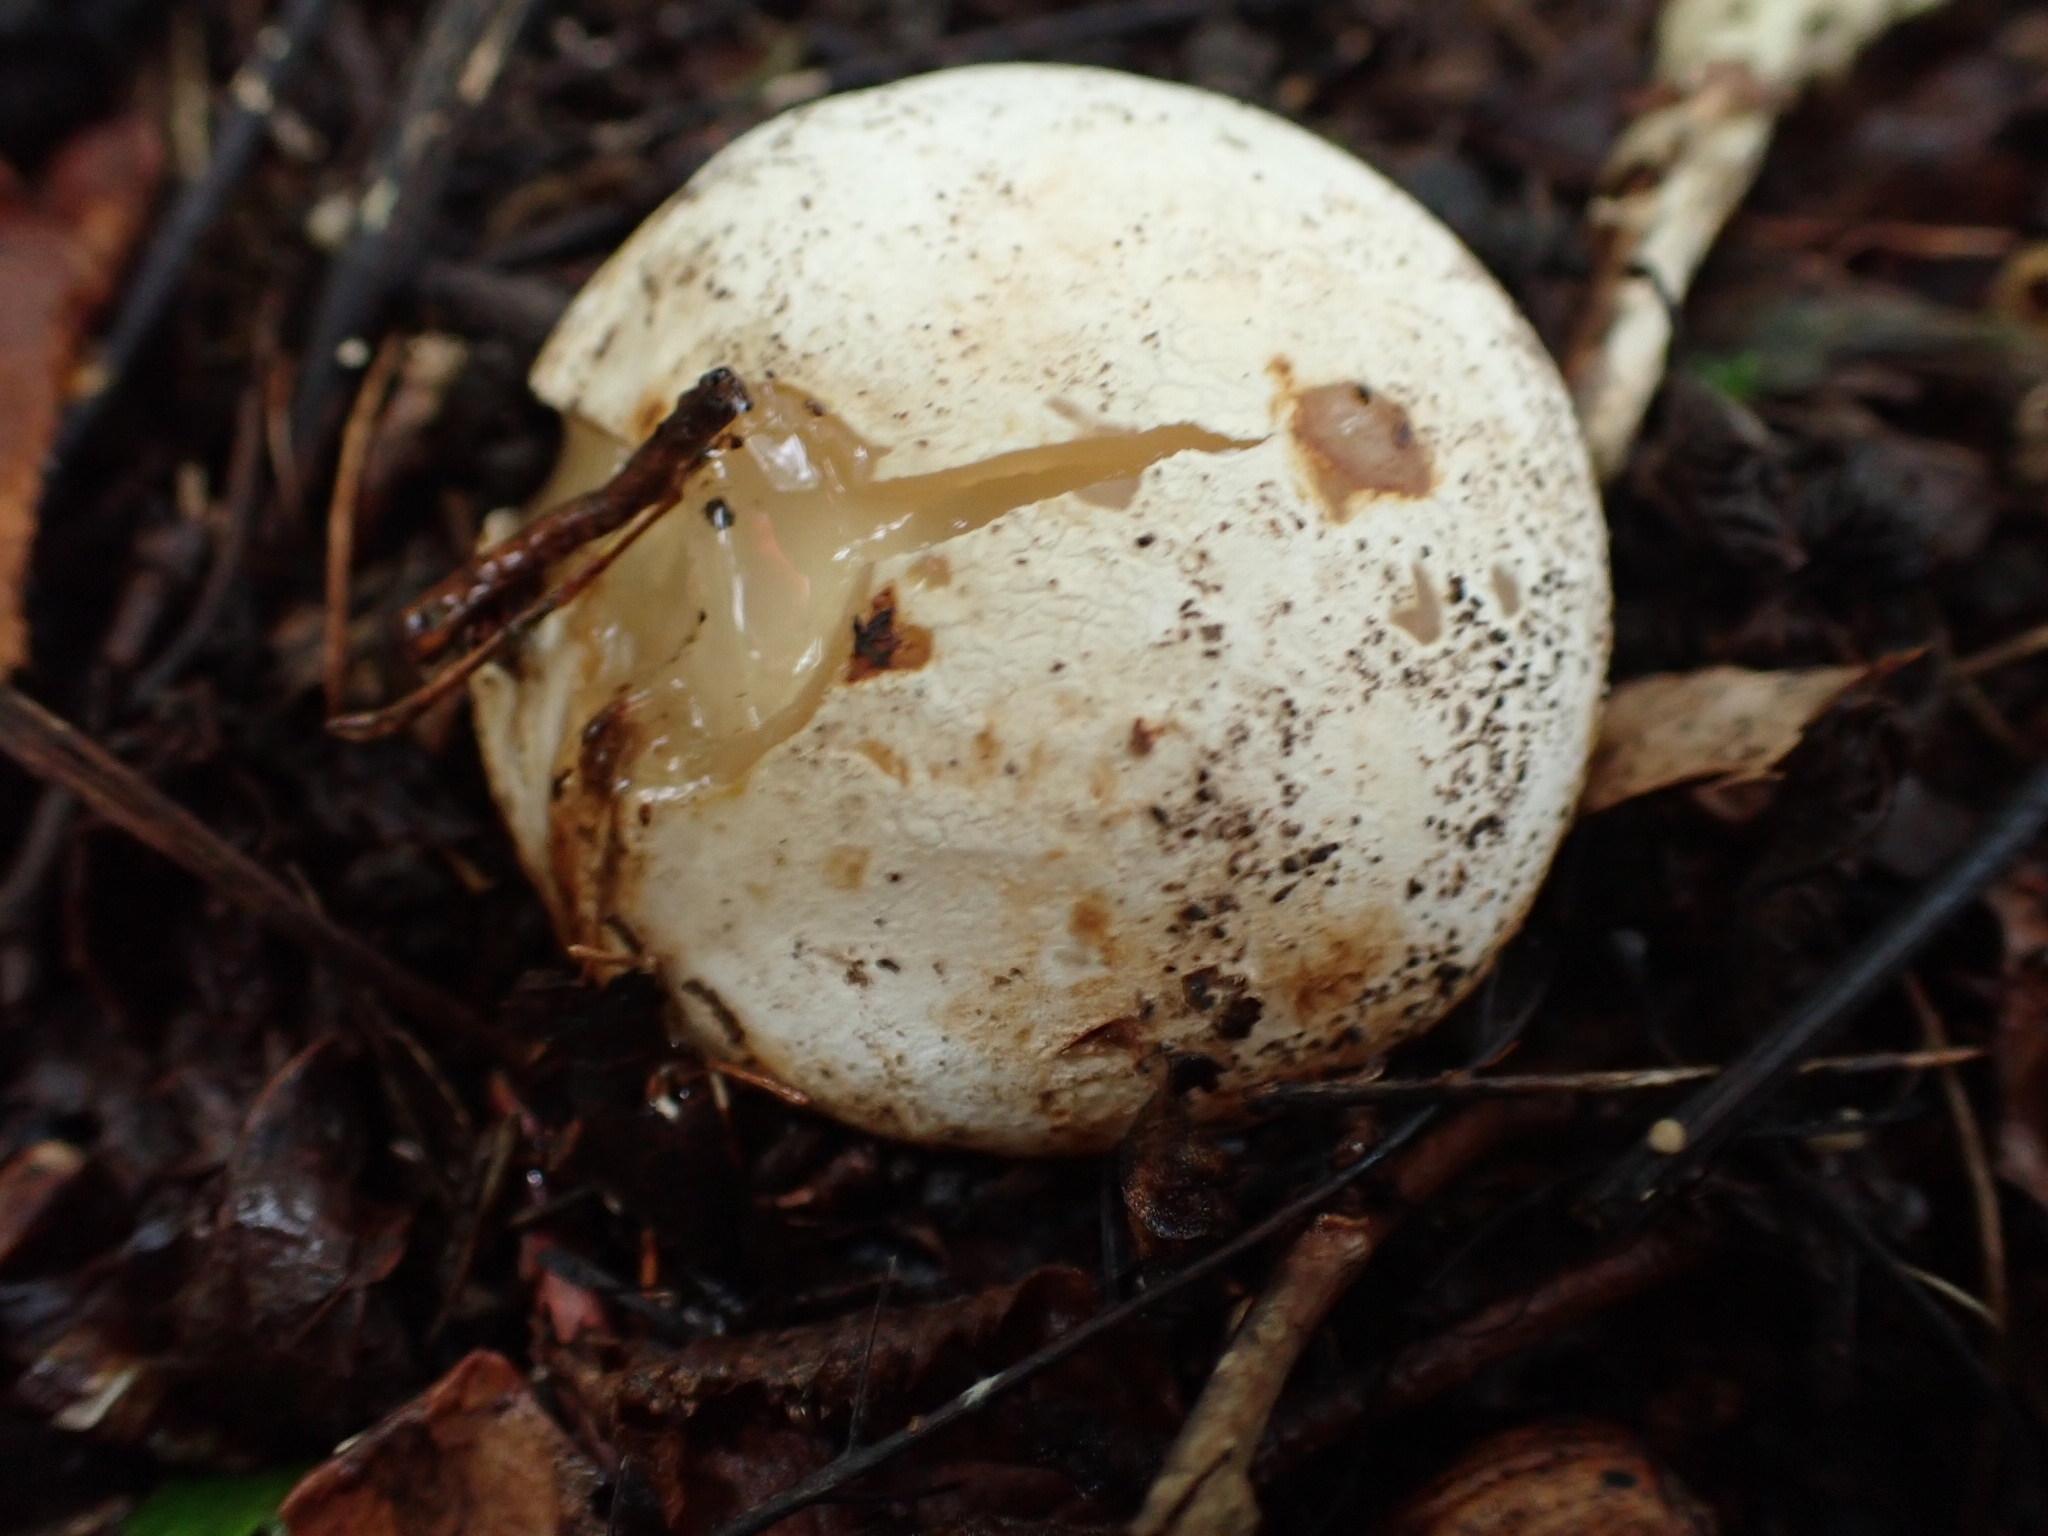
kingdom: Fungi
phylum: Basidiomycota
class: Agaricomycetes
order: Phallales
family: Phallaceae
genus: Phallus
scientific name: Phallus impudicus
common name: Common stinkhorn
